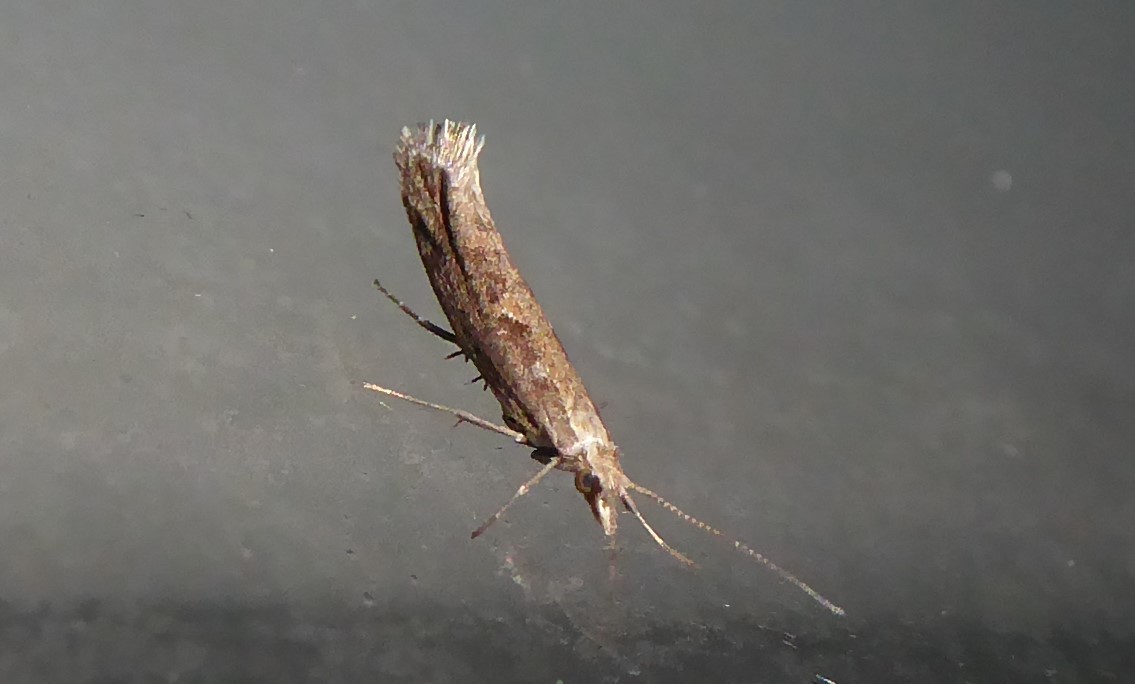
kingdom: Animalia
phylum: Arthropoda
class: Insecta
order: Lepidoptera
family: Plutellidae
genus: Plutella
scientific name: Plutella xylostella
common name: Diamond-back moth
